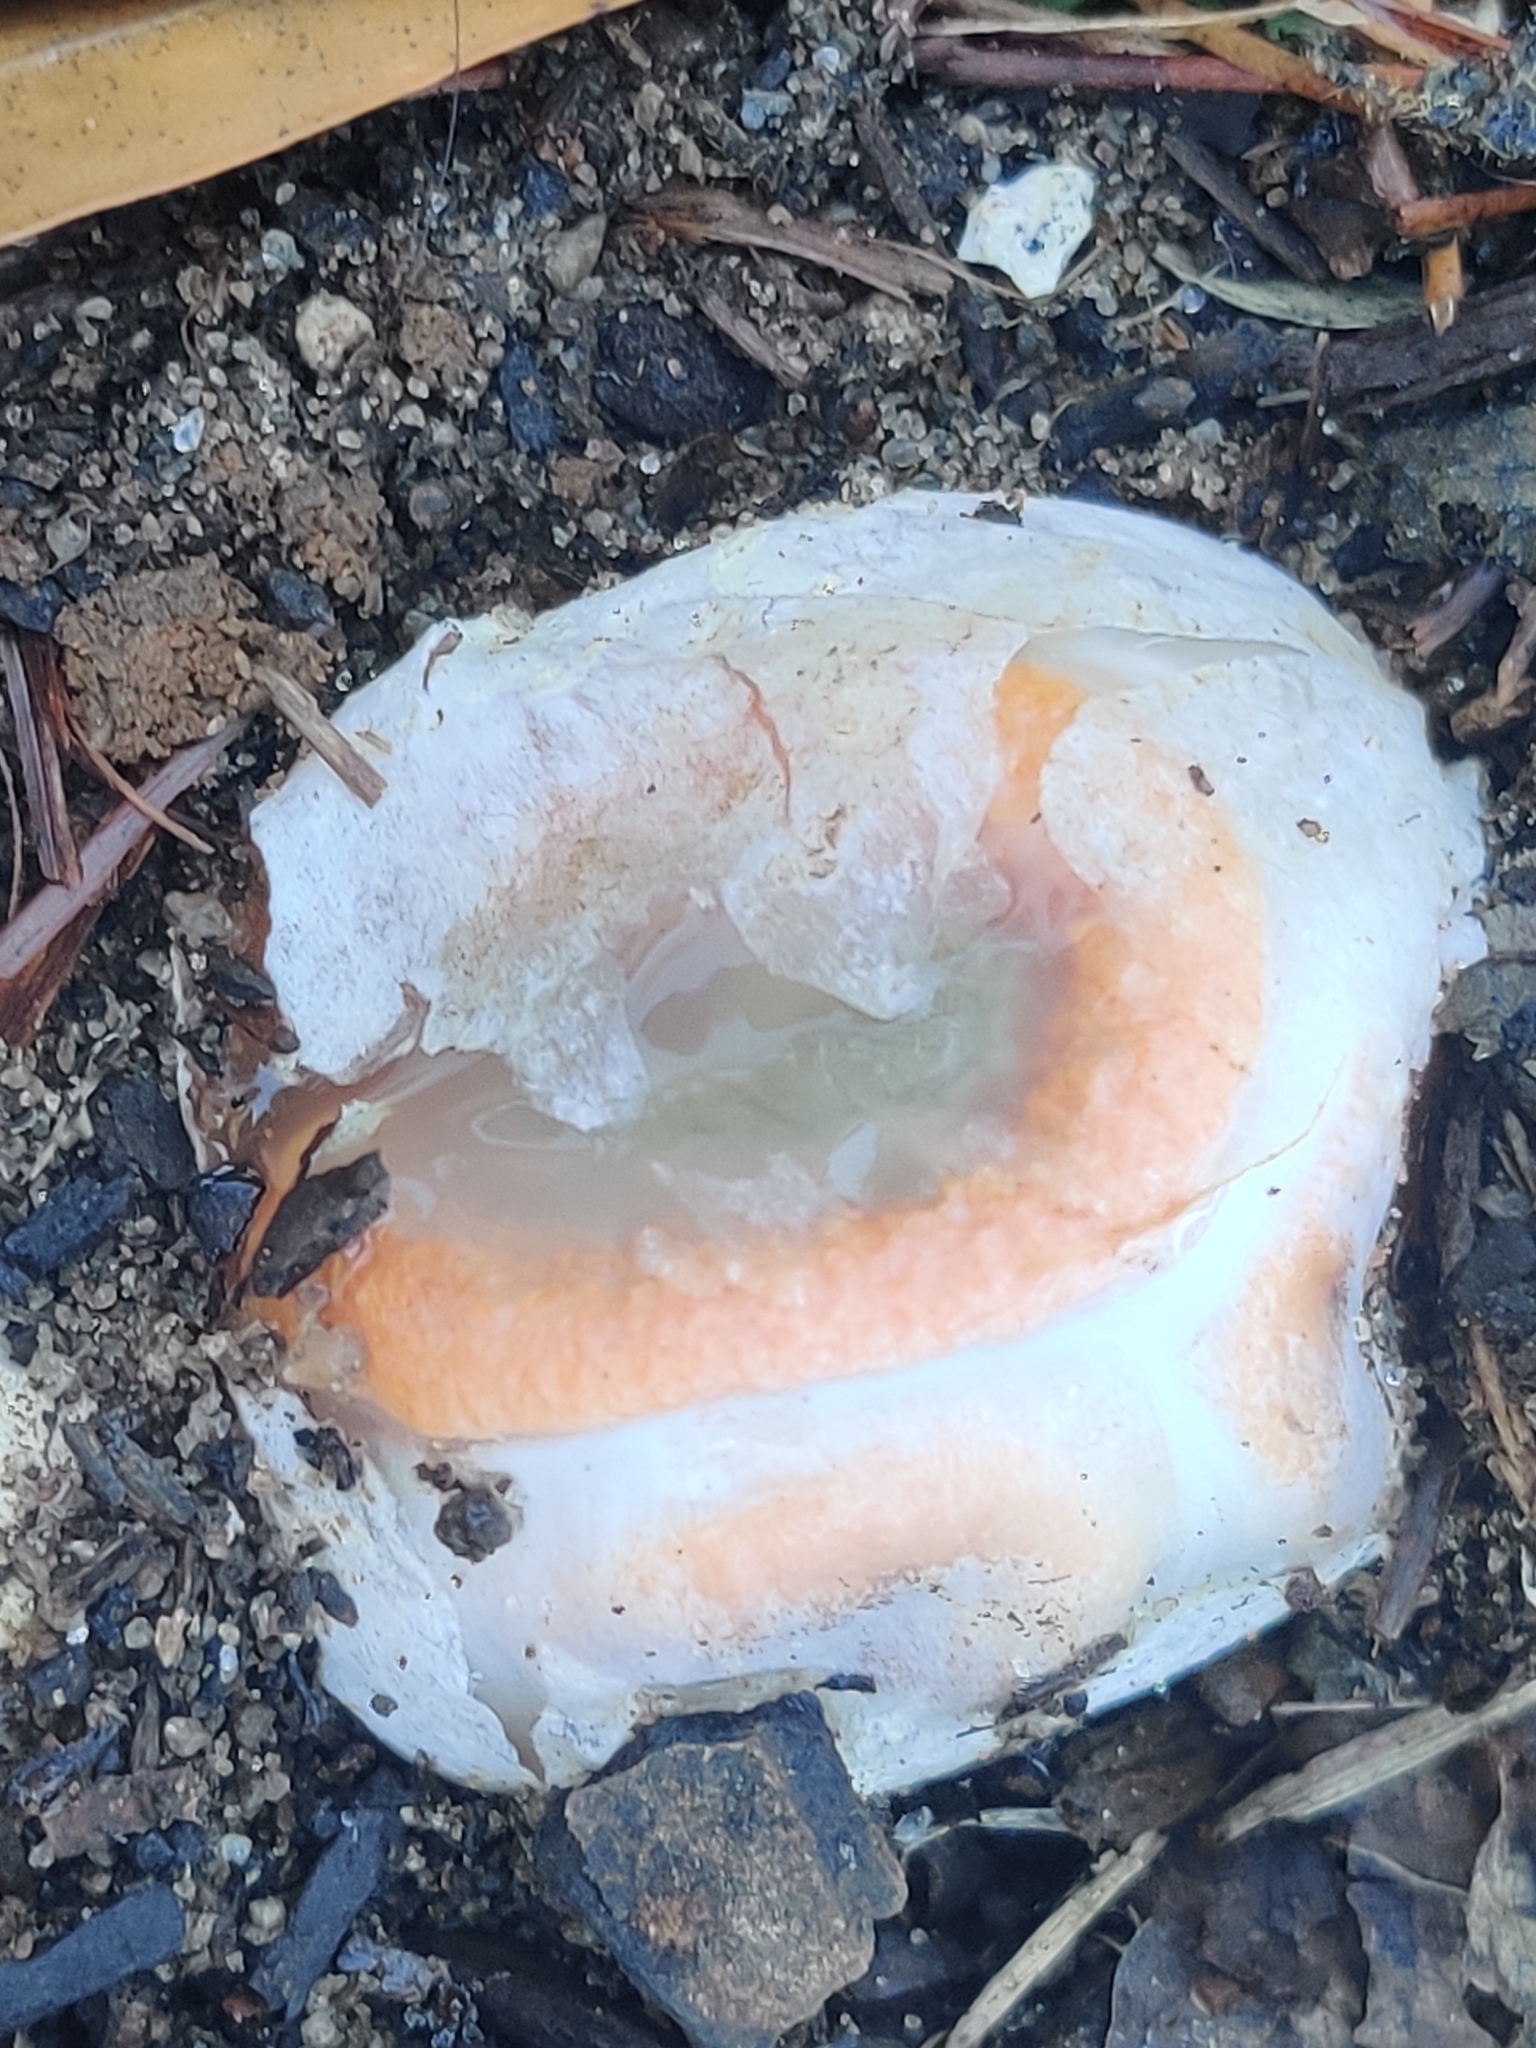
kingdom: Fungi
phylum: Basidiomycota
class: Agaricomycetes
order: Phallales
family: Phallaceae
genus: Clathrus
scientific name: Clathrus columnatus
